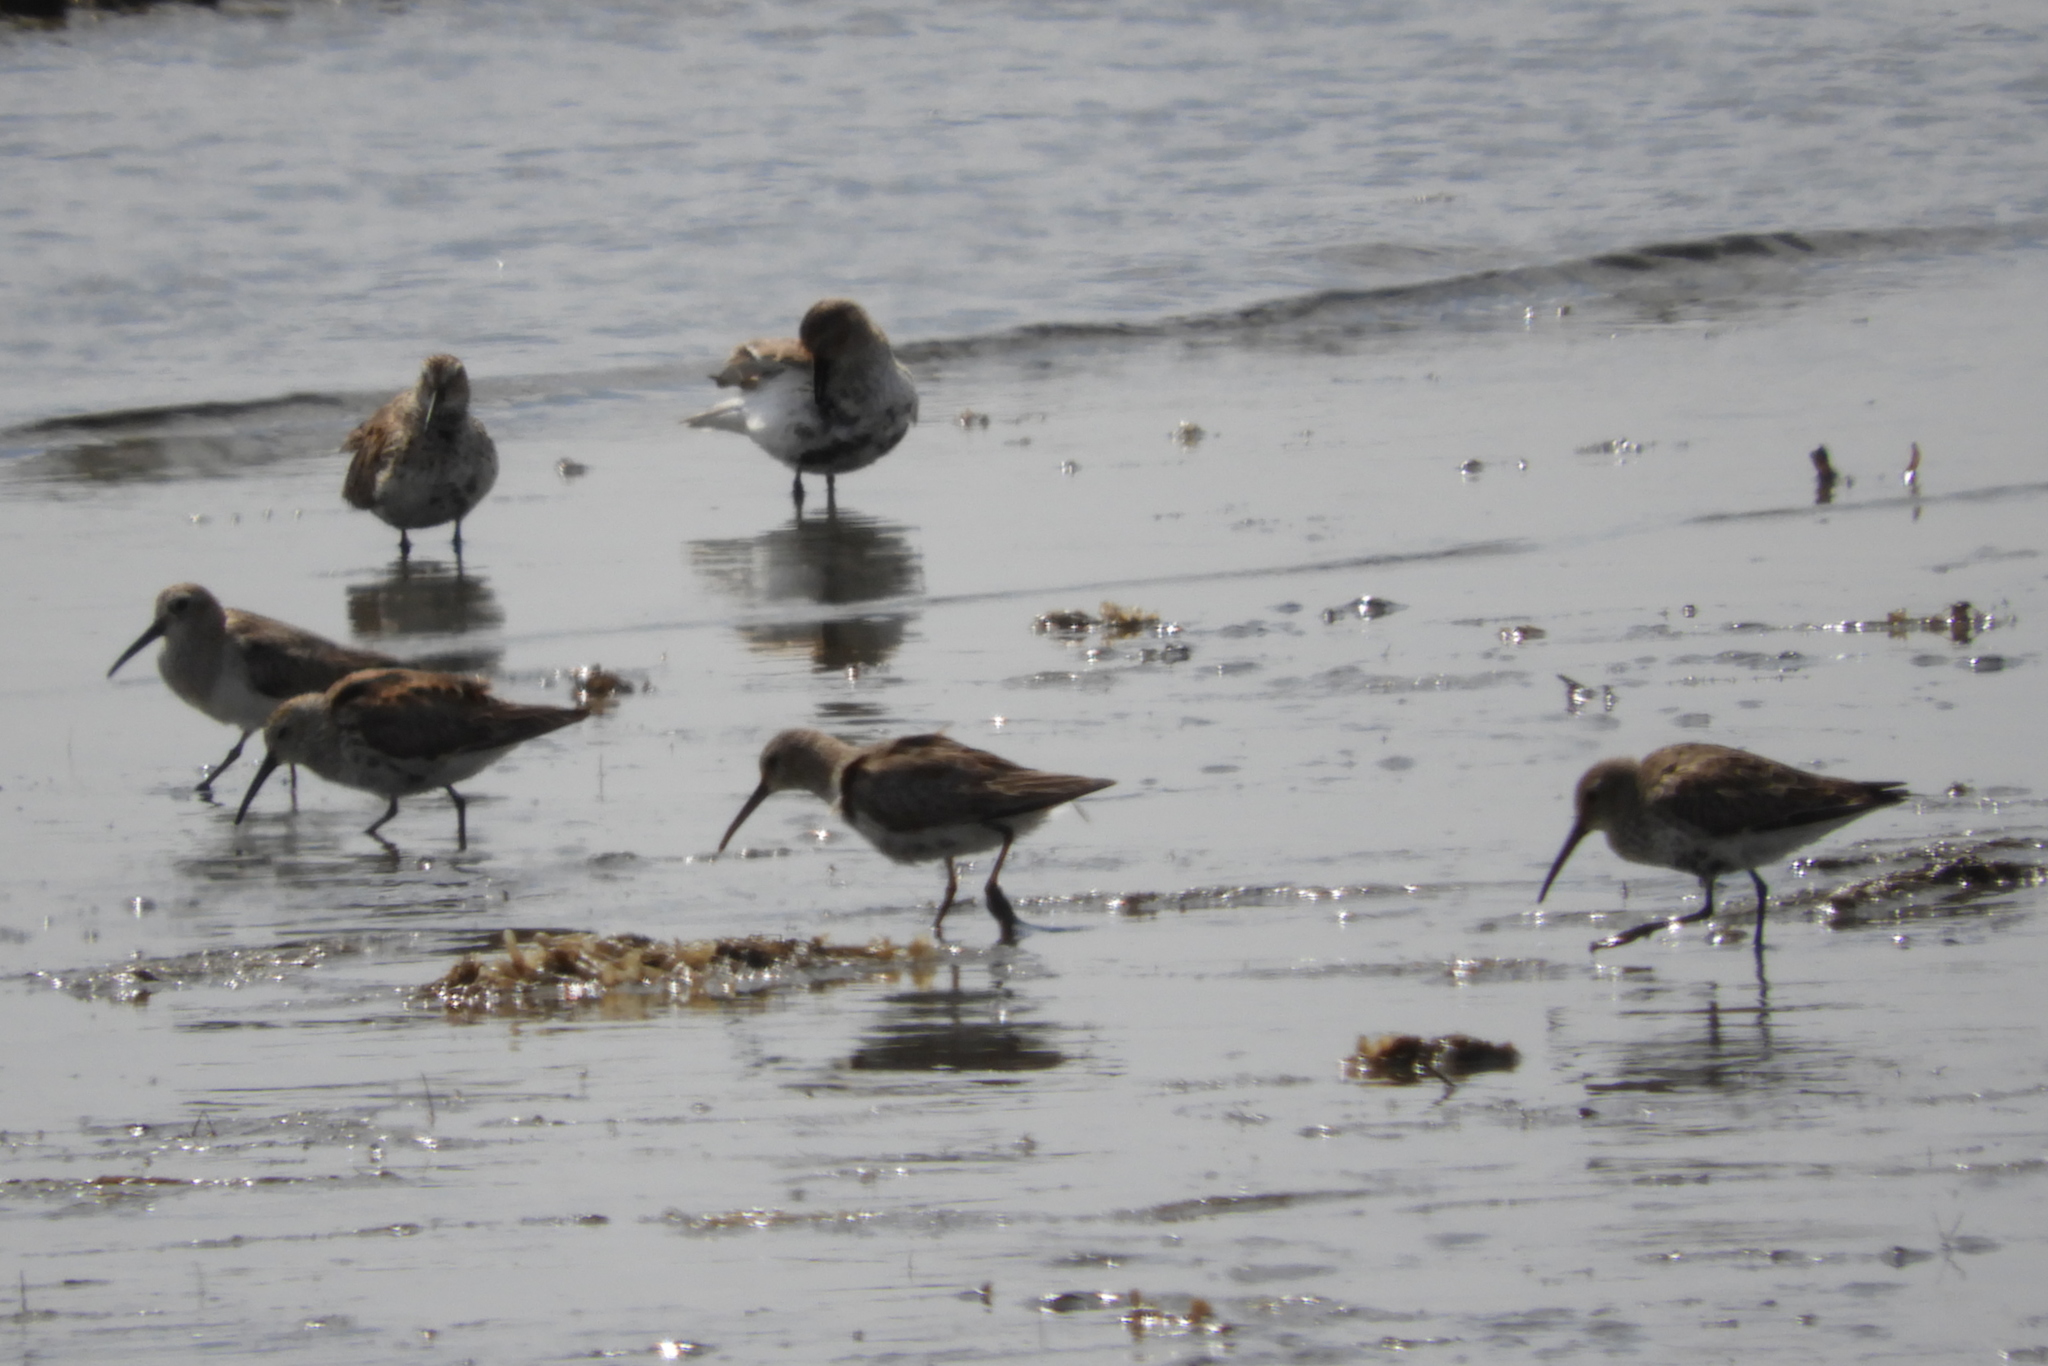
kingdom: Animalia
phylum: Chordata
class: Aves
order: Charadriiformes
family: Scolopacidae
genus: Calidris
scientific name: Calidris alpina
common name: Dunlin
